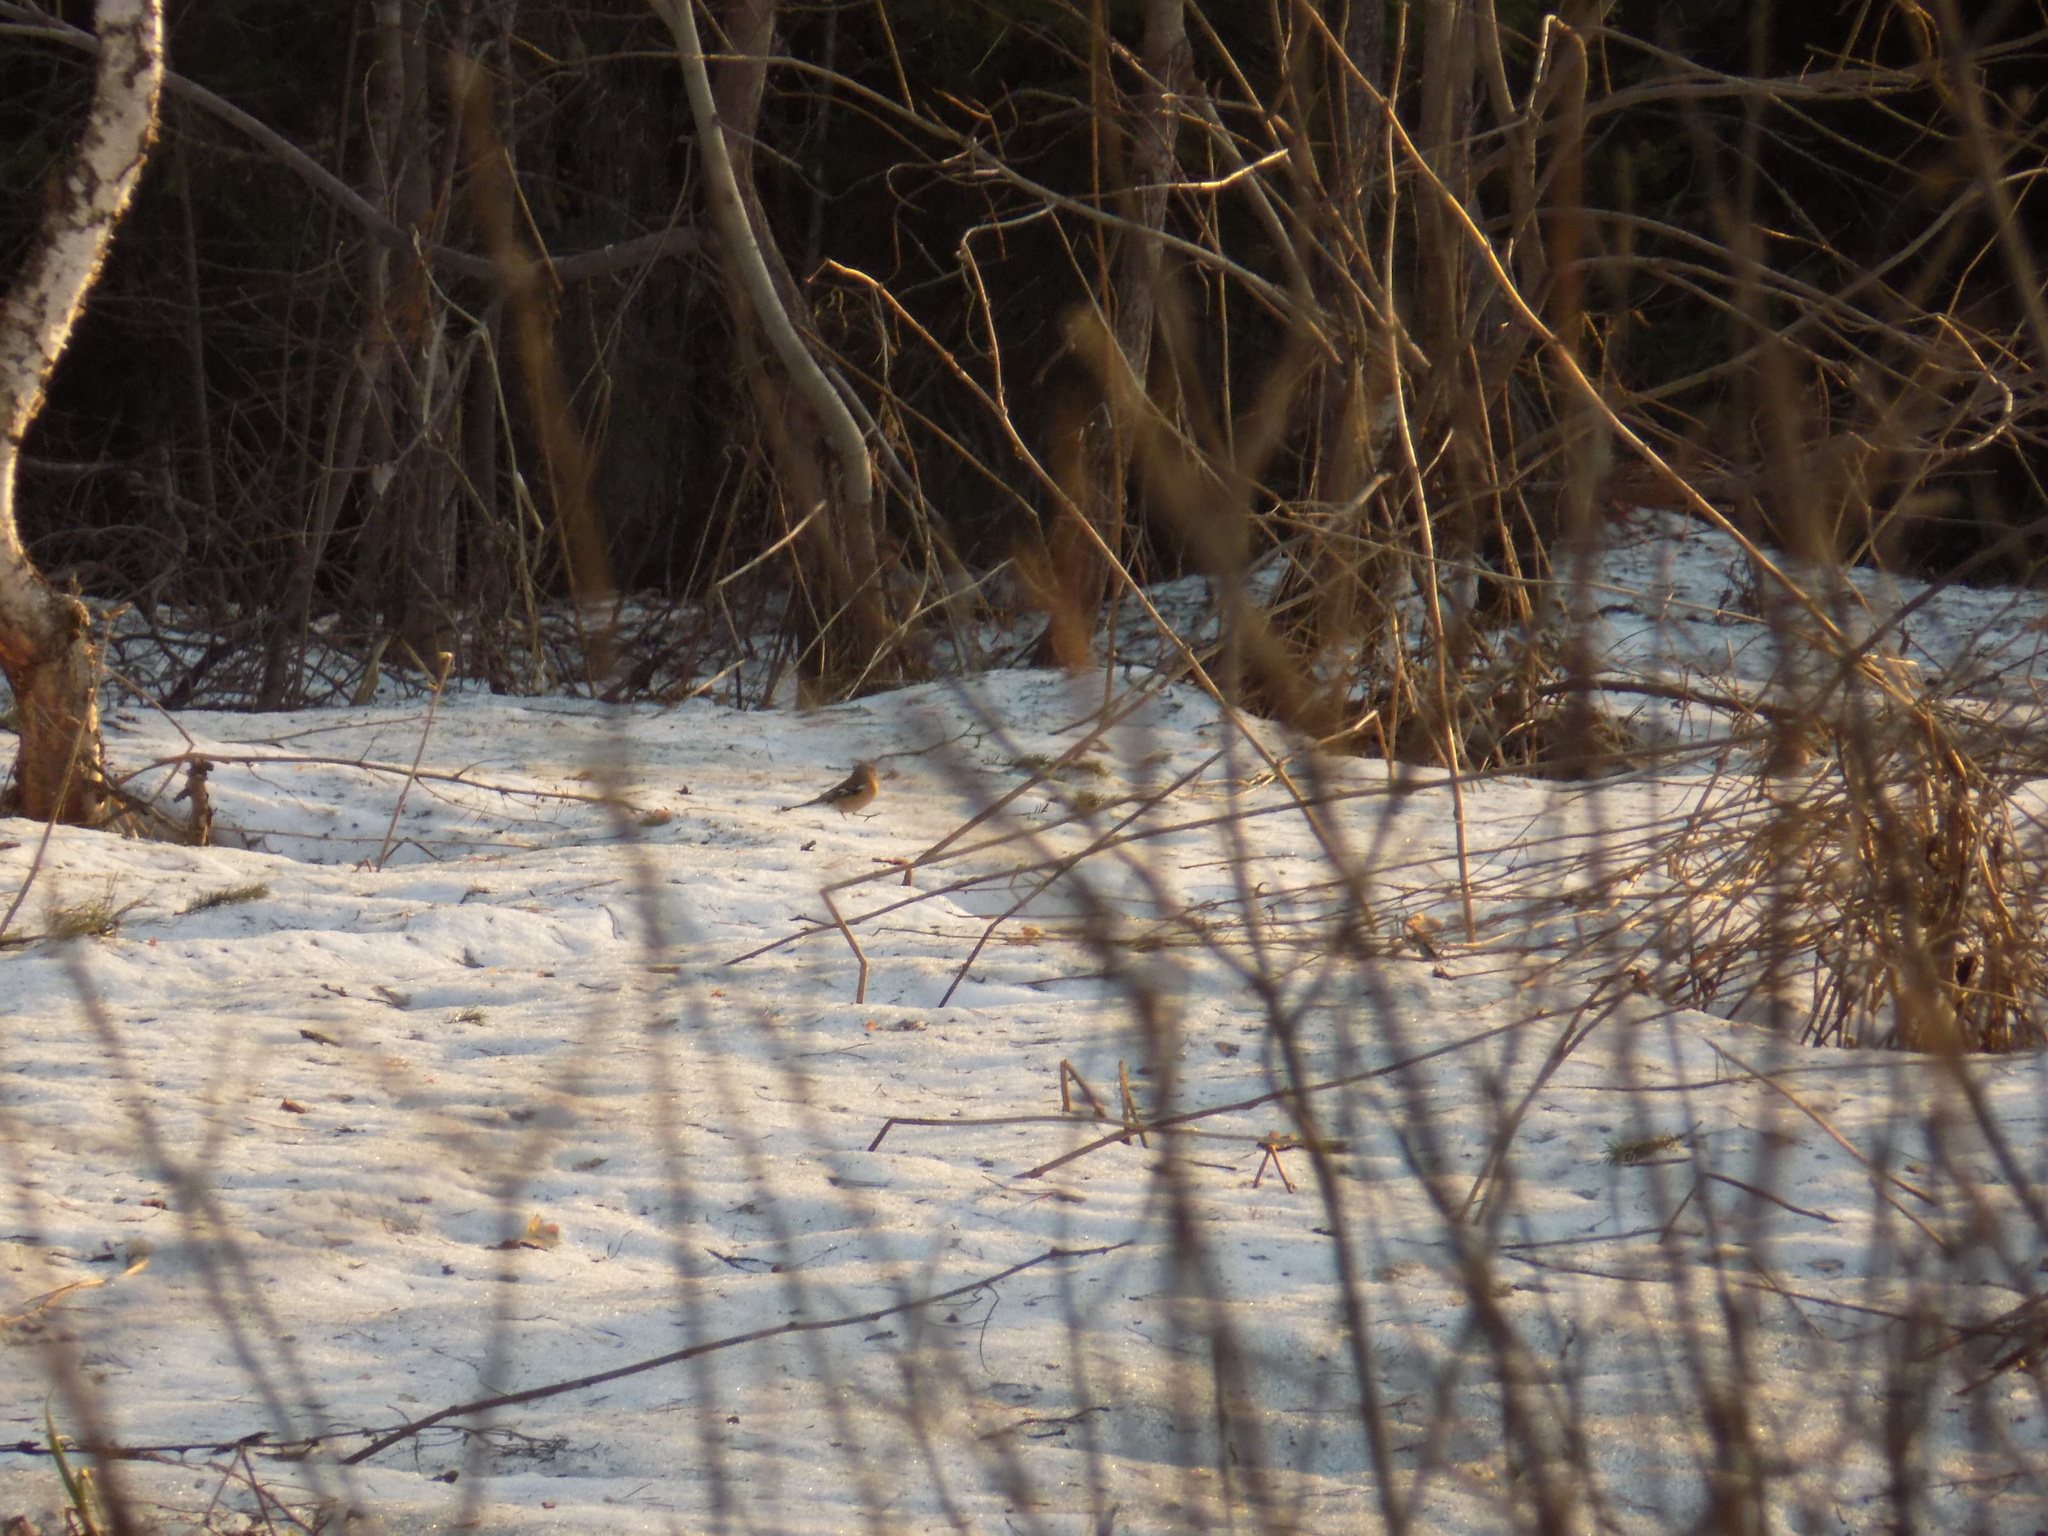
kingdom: Animalia
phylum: Chordata
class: Aves
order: Passeriformes
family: Fringillidae
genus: Fringilla
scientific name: Fringilla coelebs
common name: Common chaffinch
